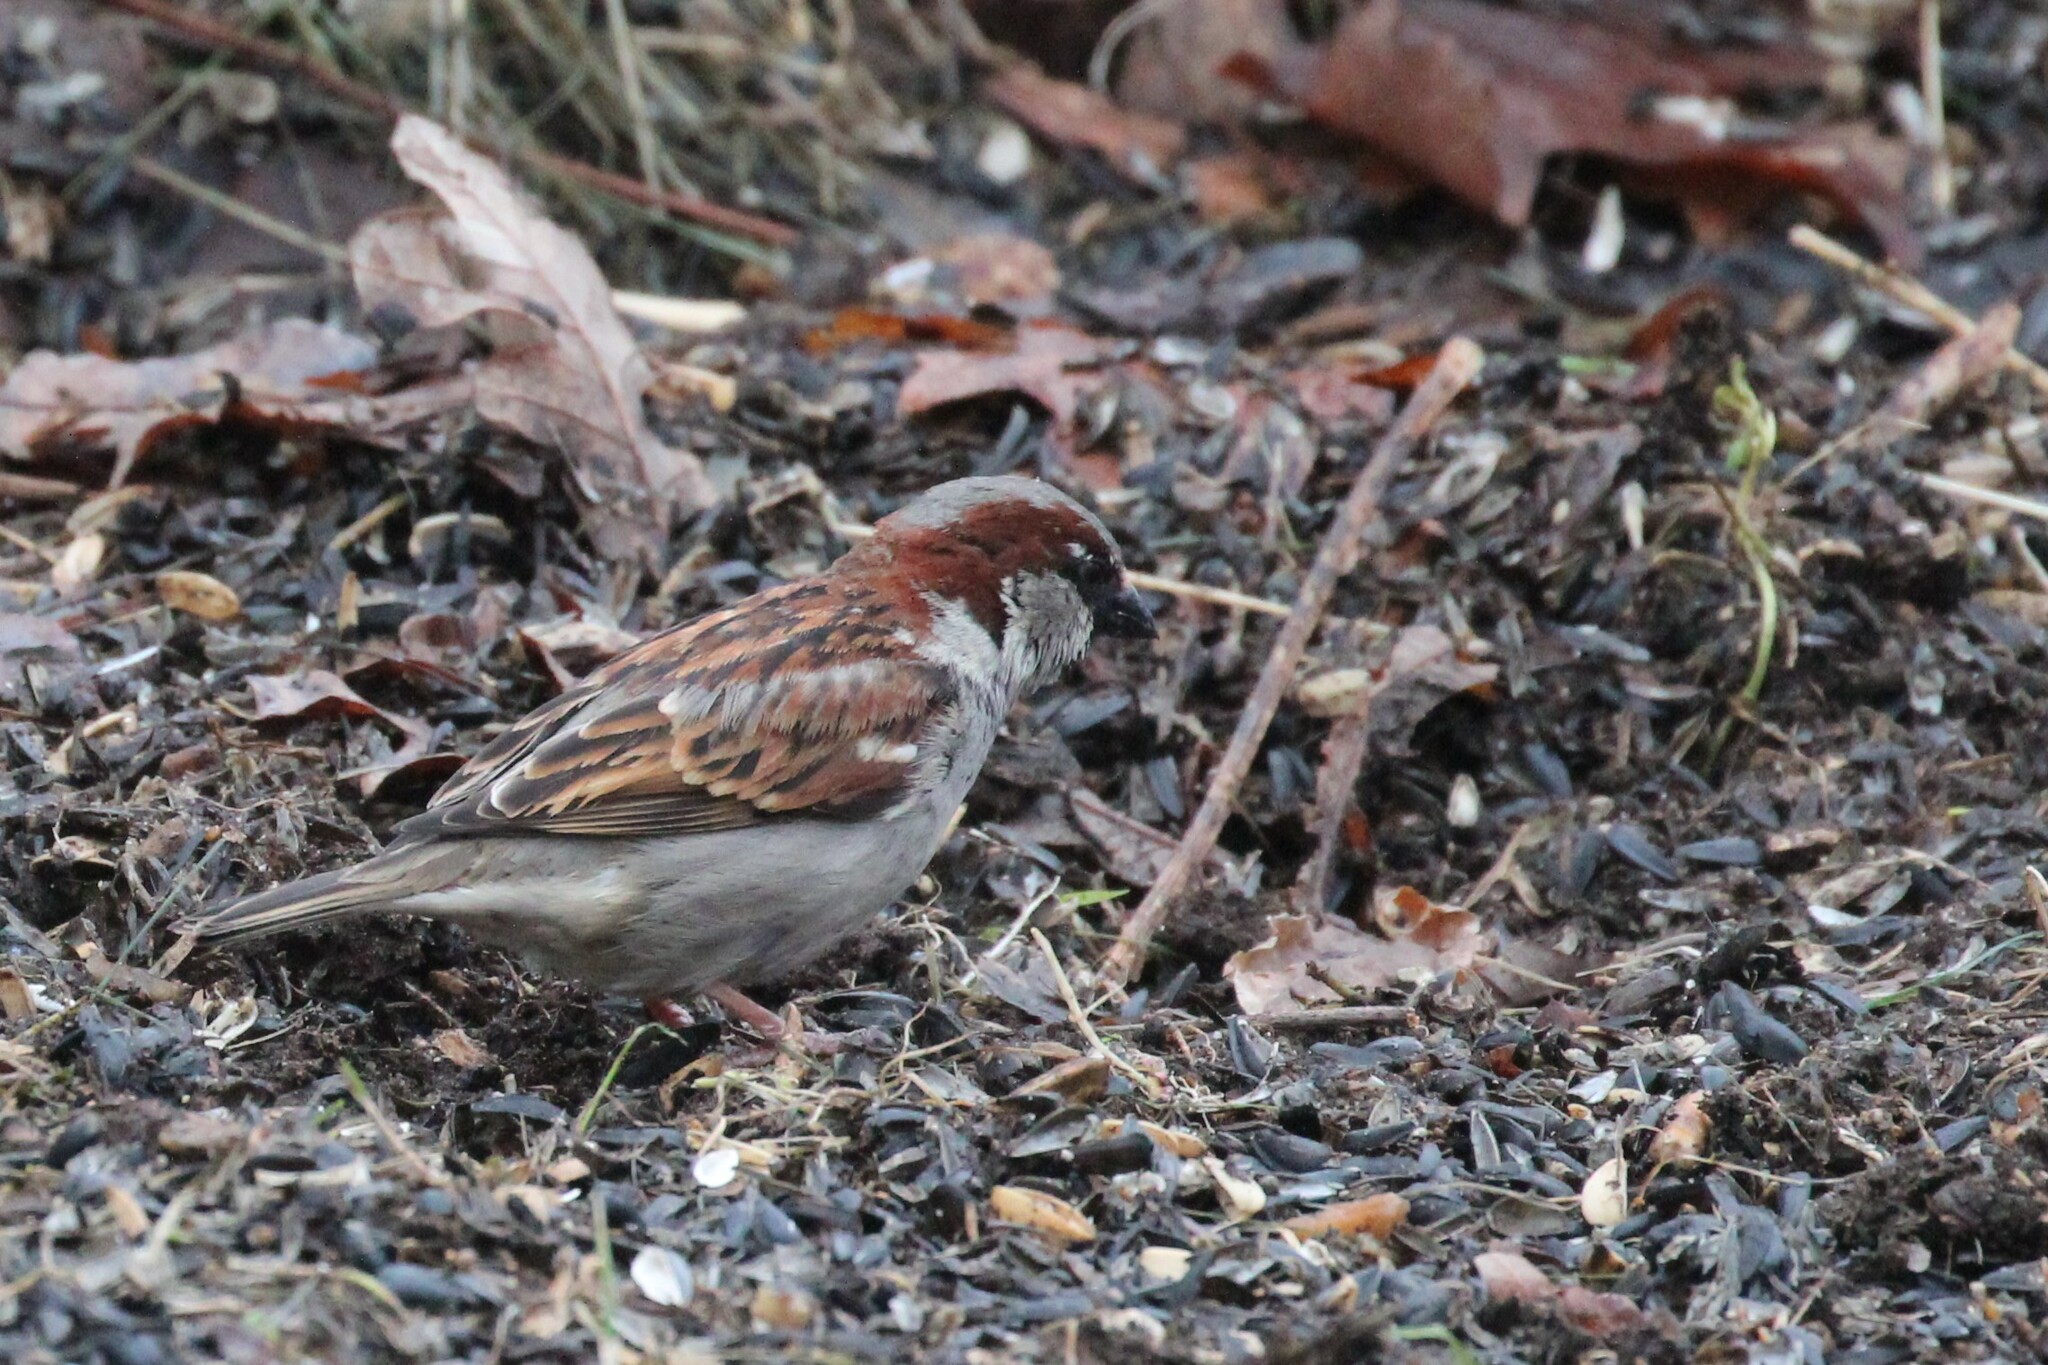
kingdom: Animalia
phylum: Chordata
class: Aves
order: Passeriformes
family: Passeridae
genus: Passer
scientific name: Passer domesticus
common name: House sparrow
